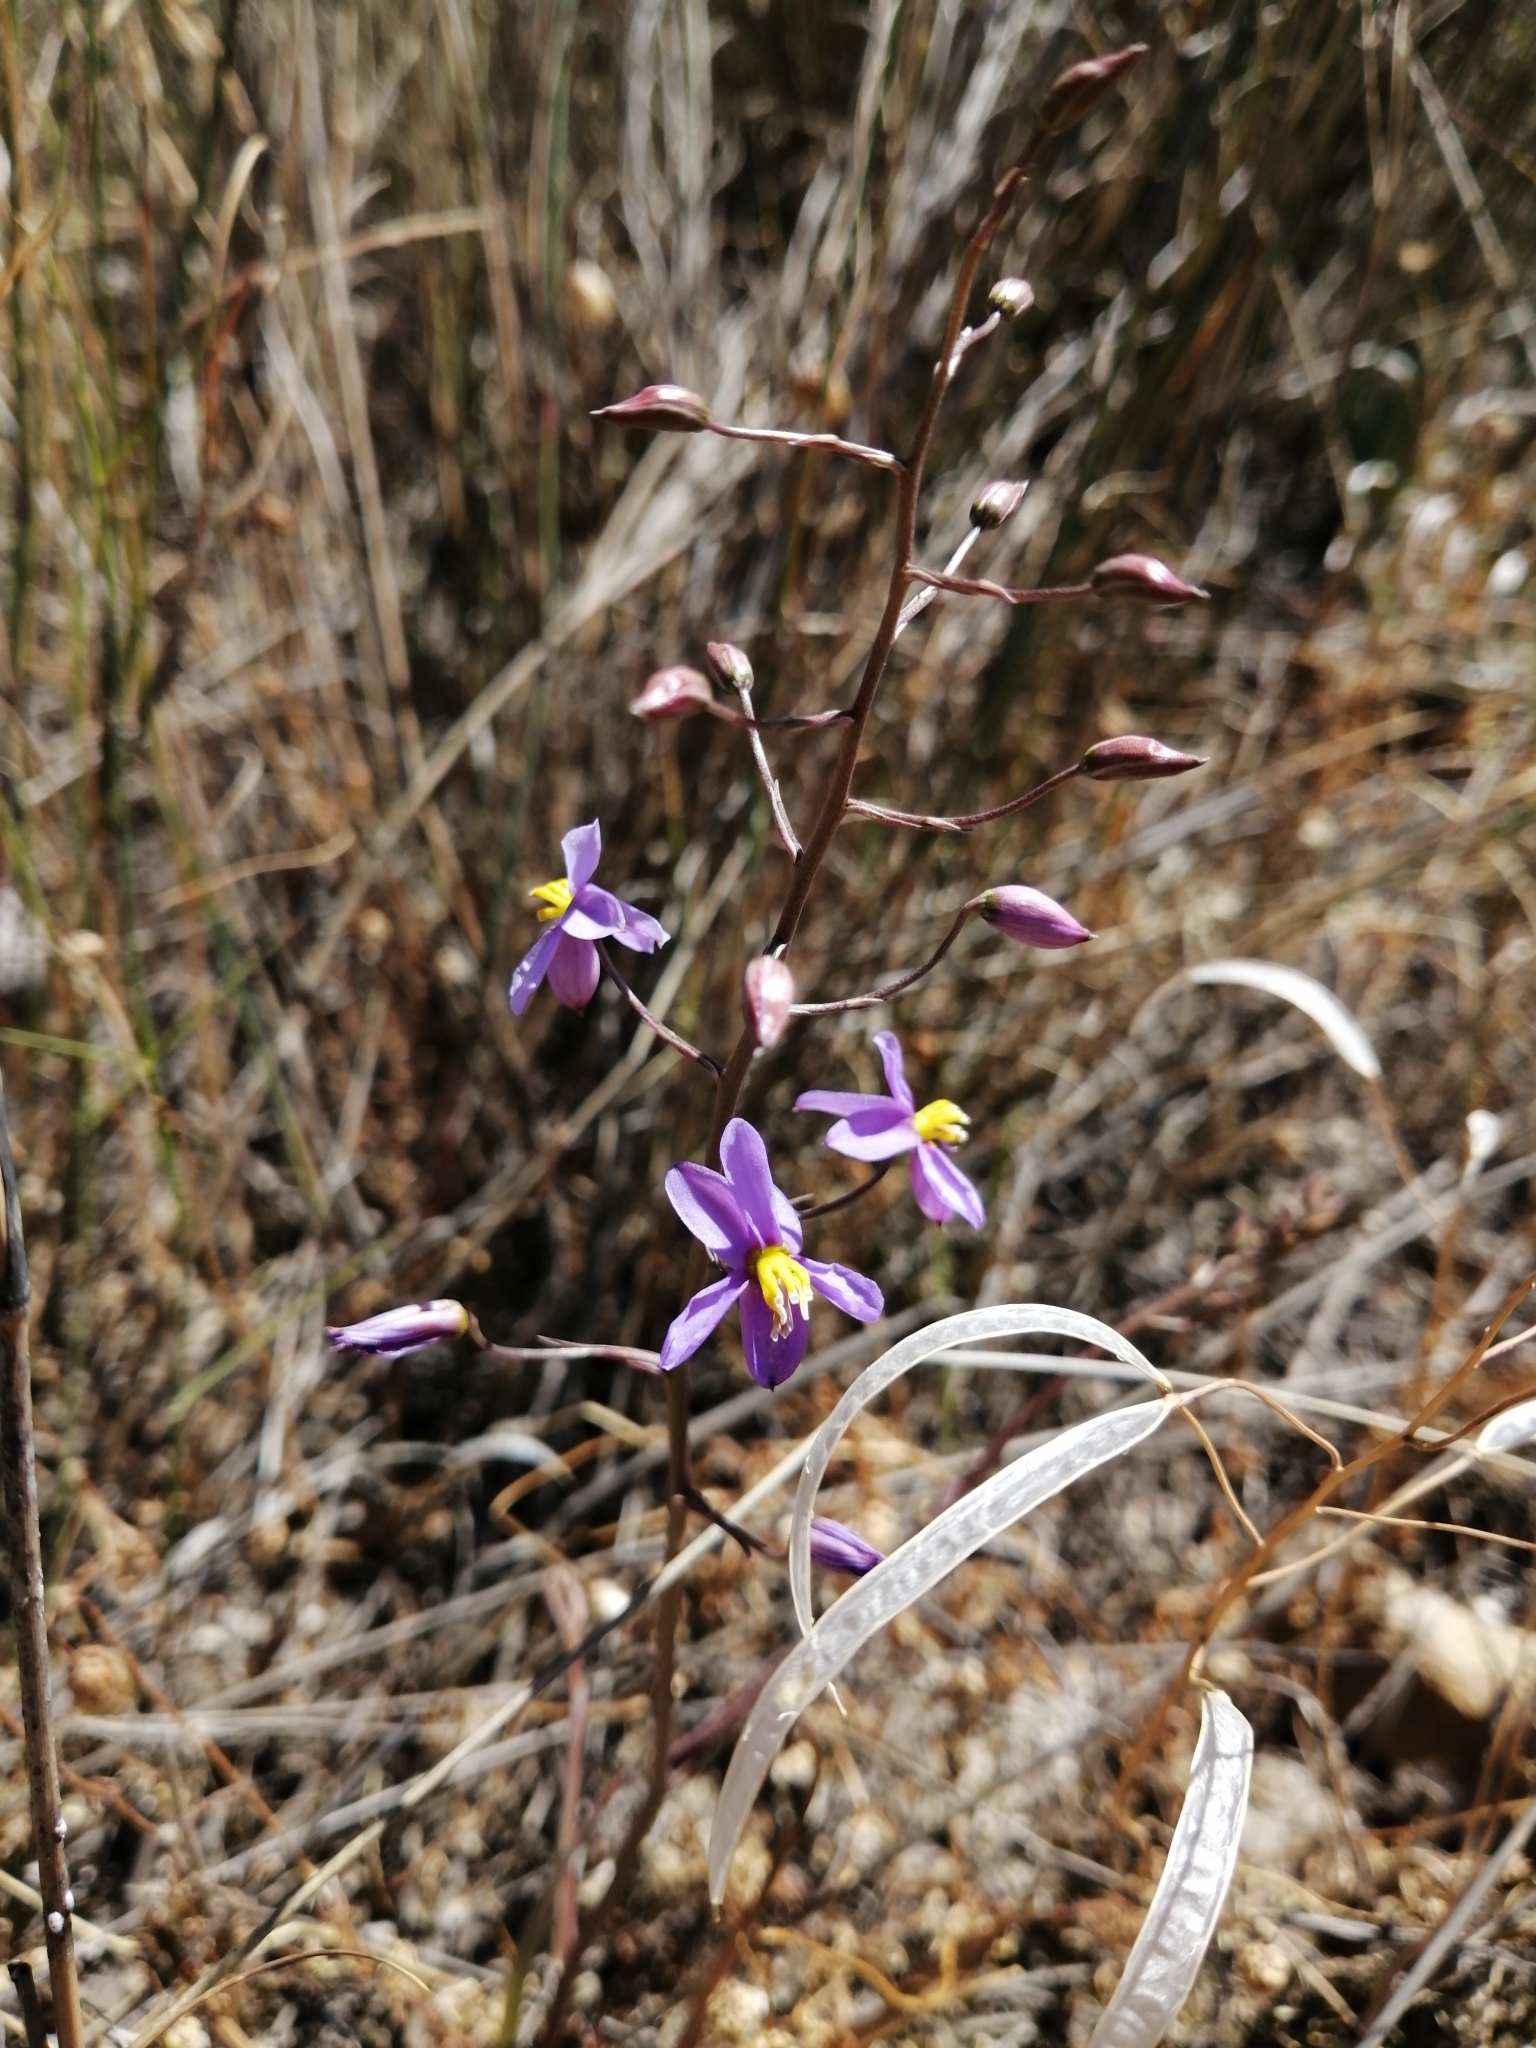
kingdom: Plantae
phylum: Tracheophyta
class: Liliopsida
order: Asparagales
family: Tecophilaeaceae
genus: Cyanella
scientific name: Cyanella hyacinthoides
